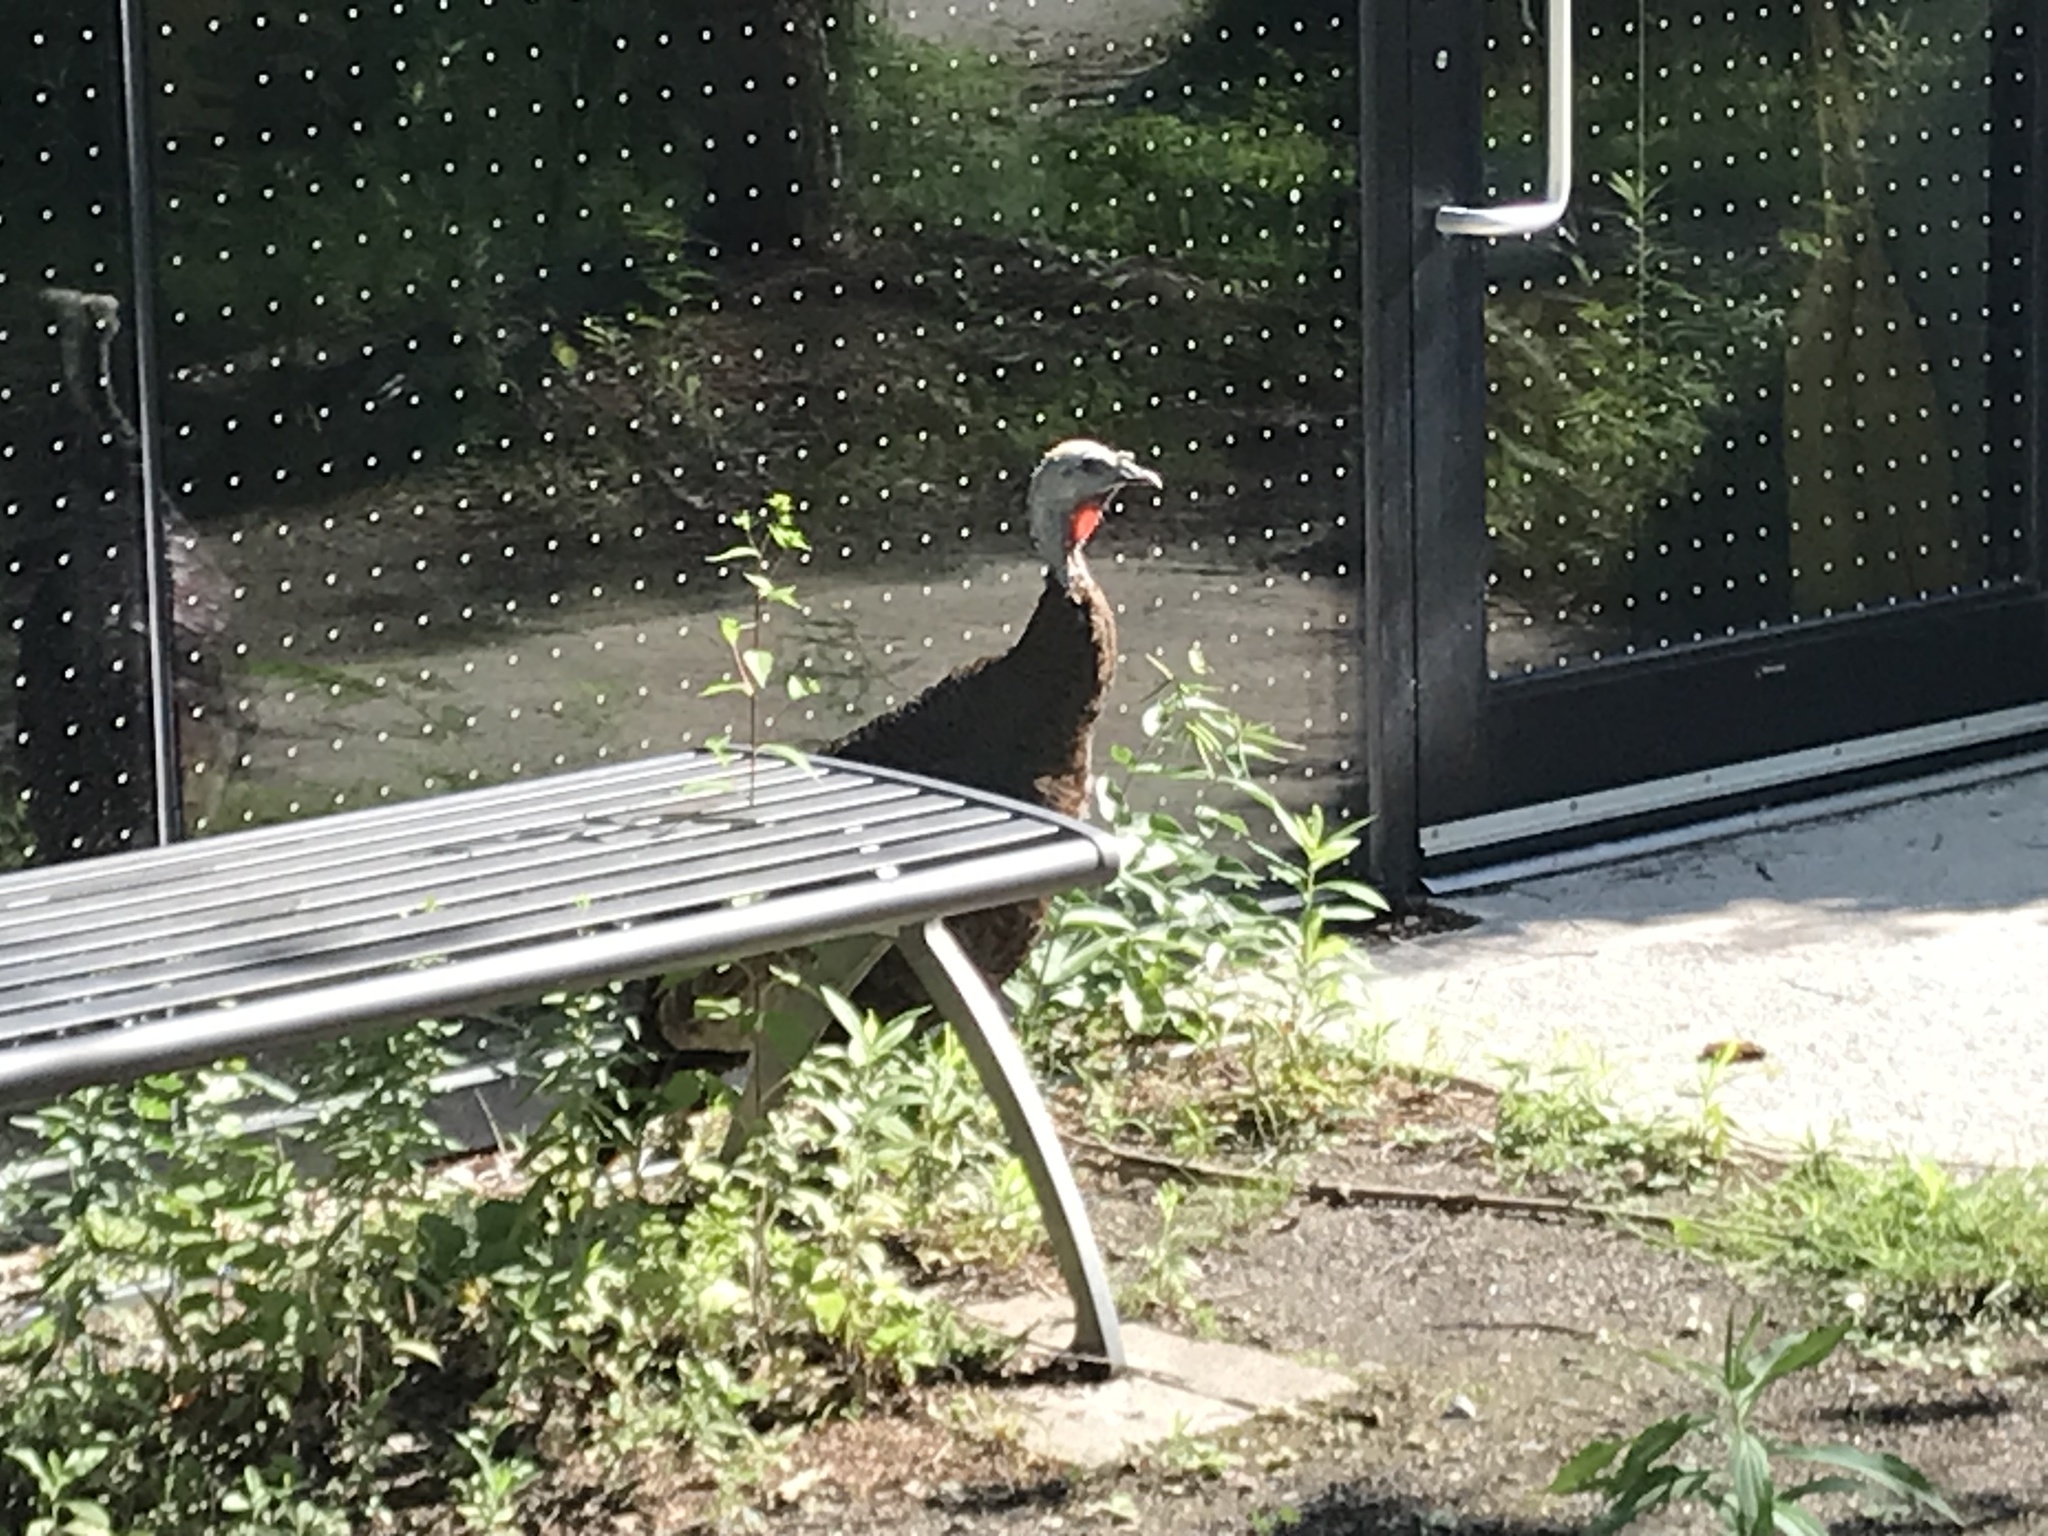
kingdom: Animalia
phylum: Chordata
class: Aves
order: Galliformes
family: Phasianidae
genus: Meleagris
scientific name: Meleagris gallopavo
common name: Wild turkey
